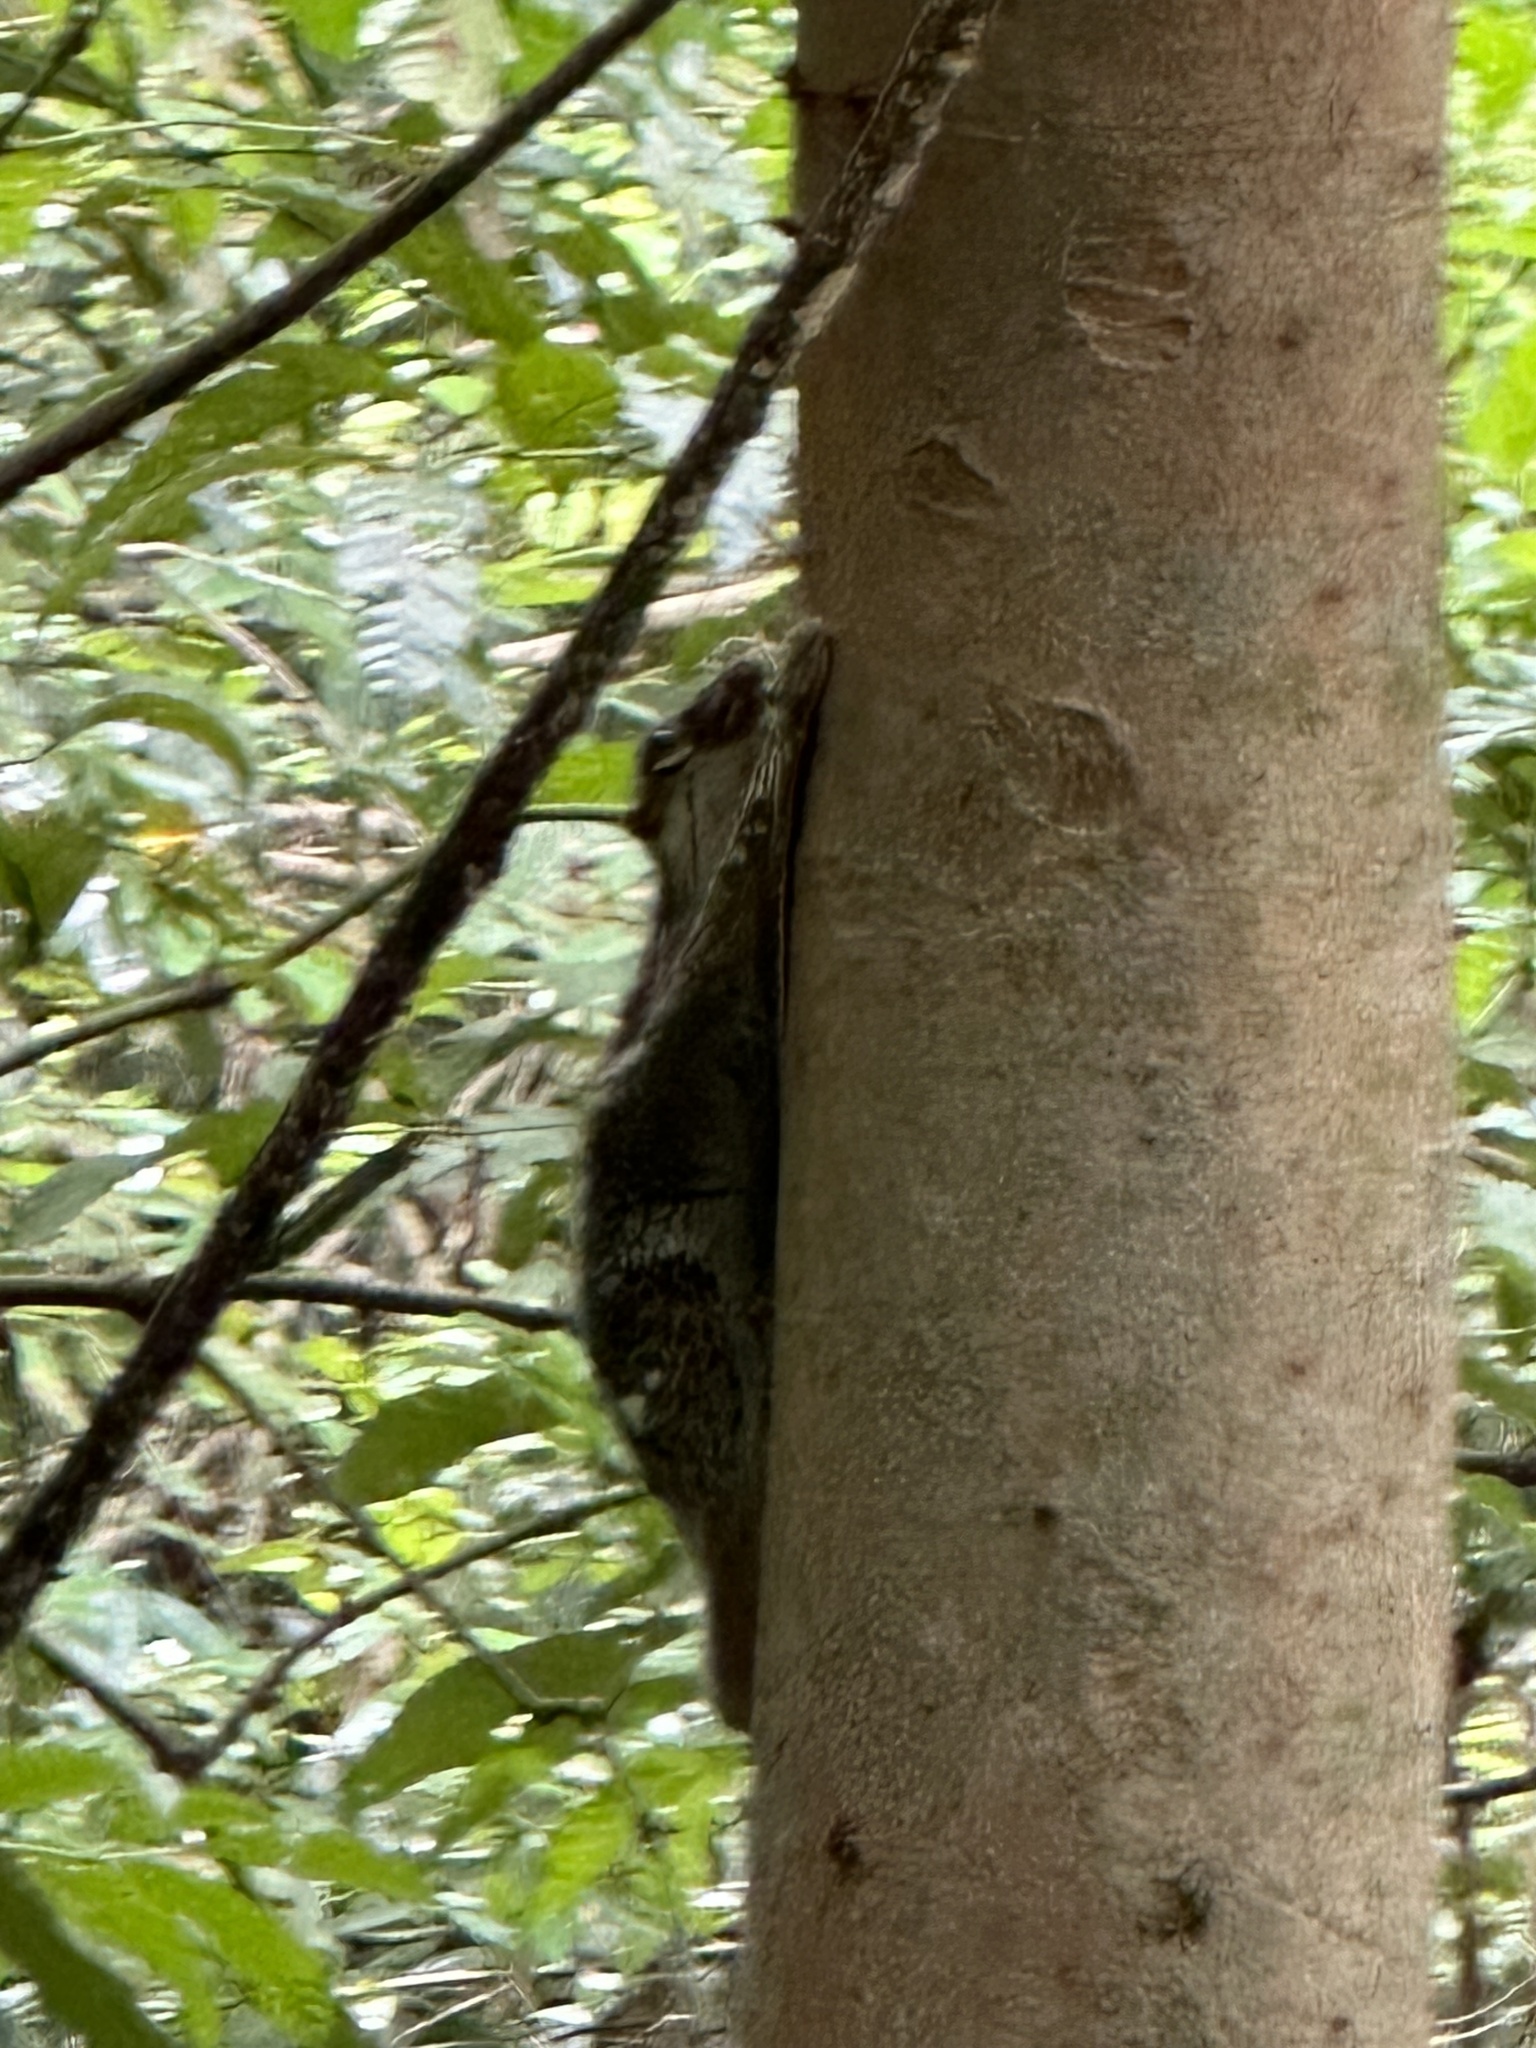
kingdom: Animalia
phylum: Chordata
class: Mammalia
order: Dermoptera
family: Cynocephalidae
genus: Galeopterus
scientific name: Galeopterus variegatus
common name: Sunda flying lemur
